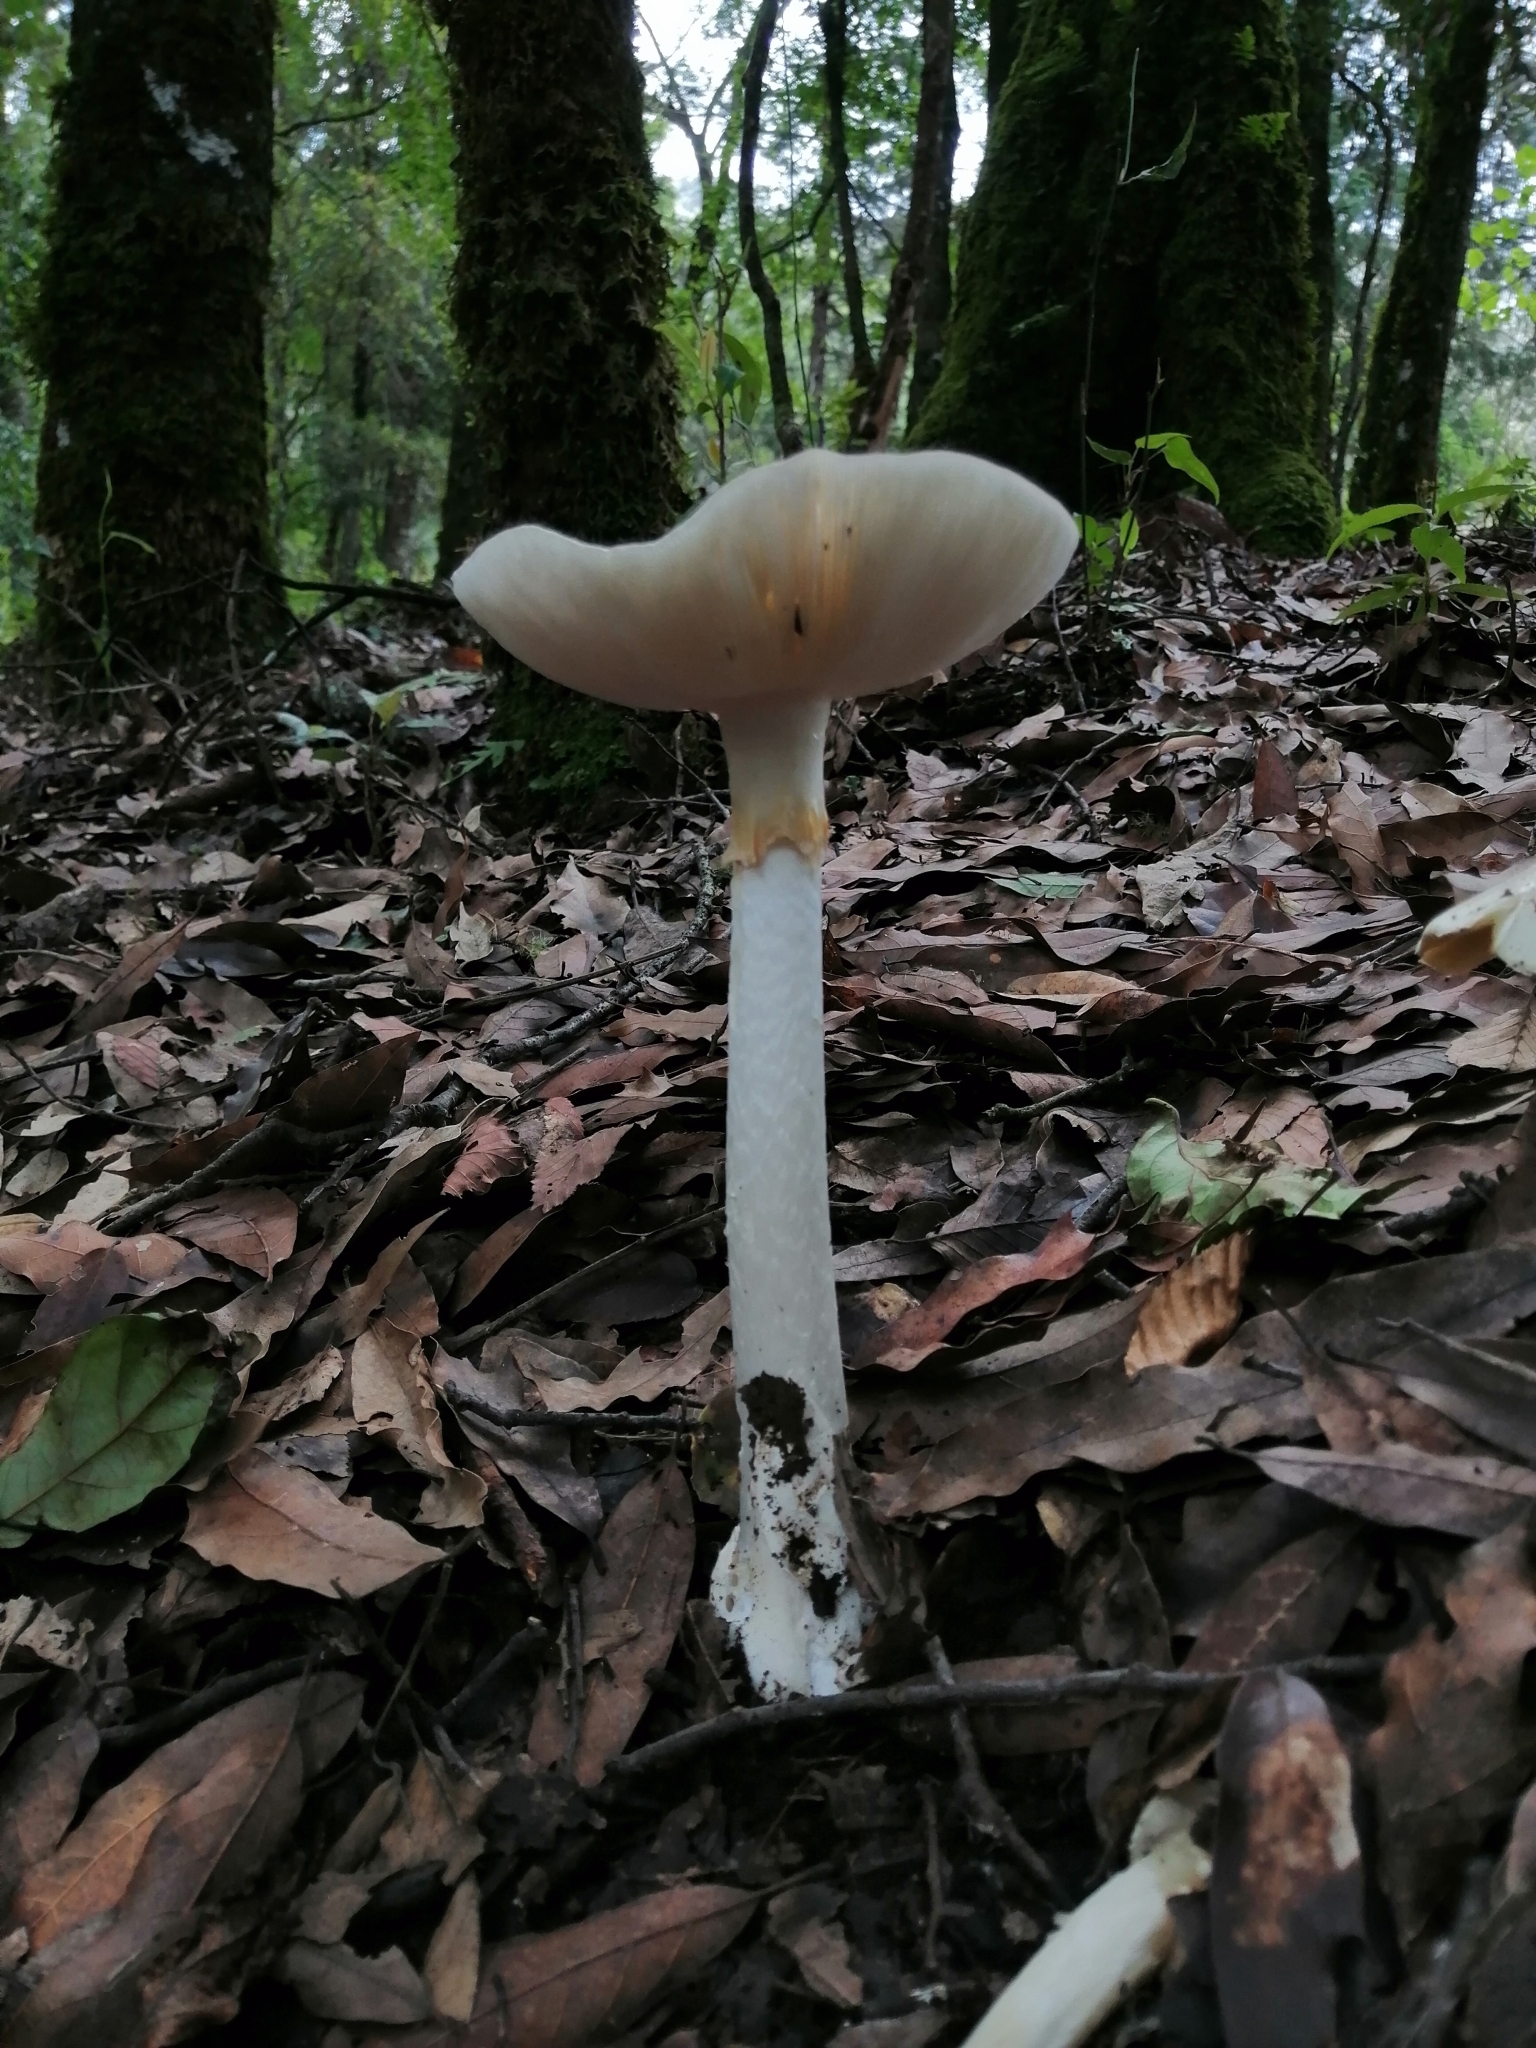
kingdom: Fungi
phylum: Basidiomycota
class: Agaricomycetes
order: Agaricales
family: Amanitaceae
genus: Amanita
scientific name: Amanita virosa
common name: Destroying angel
